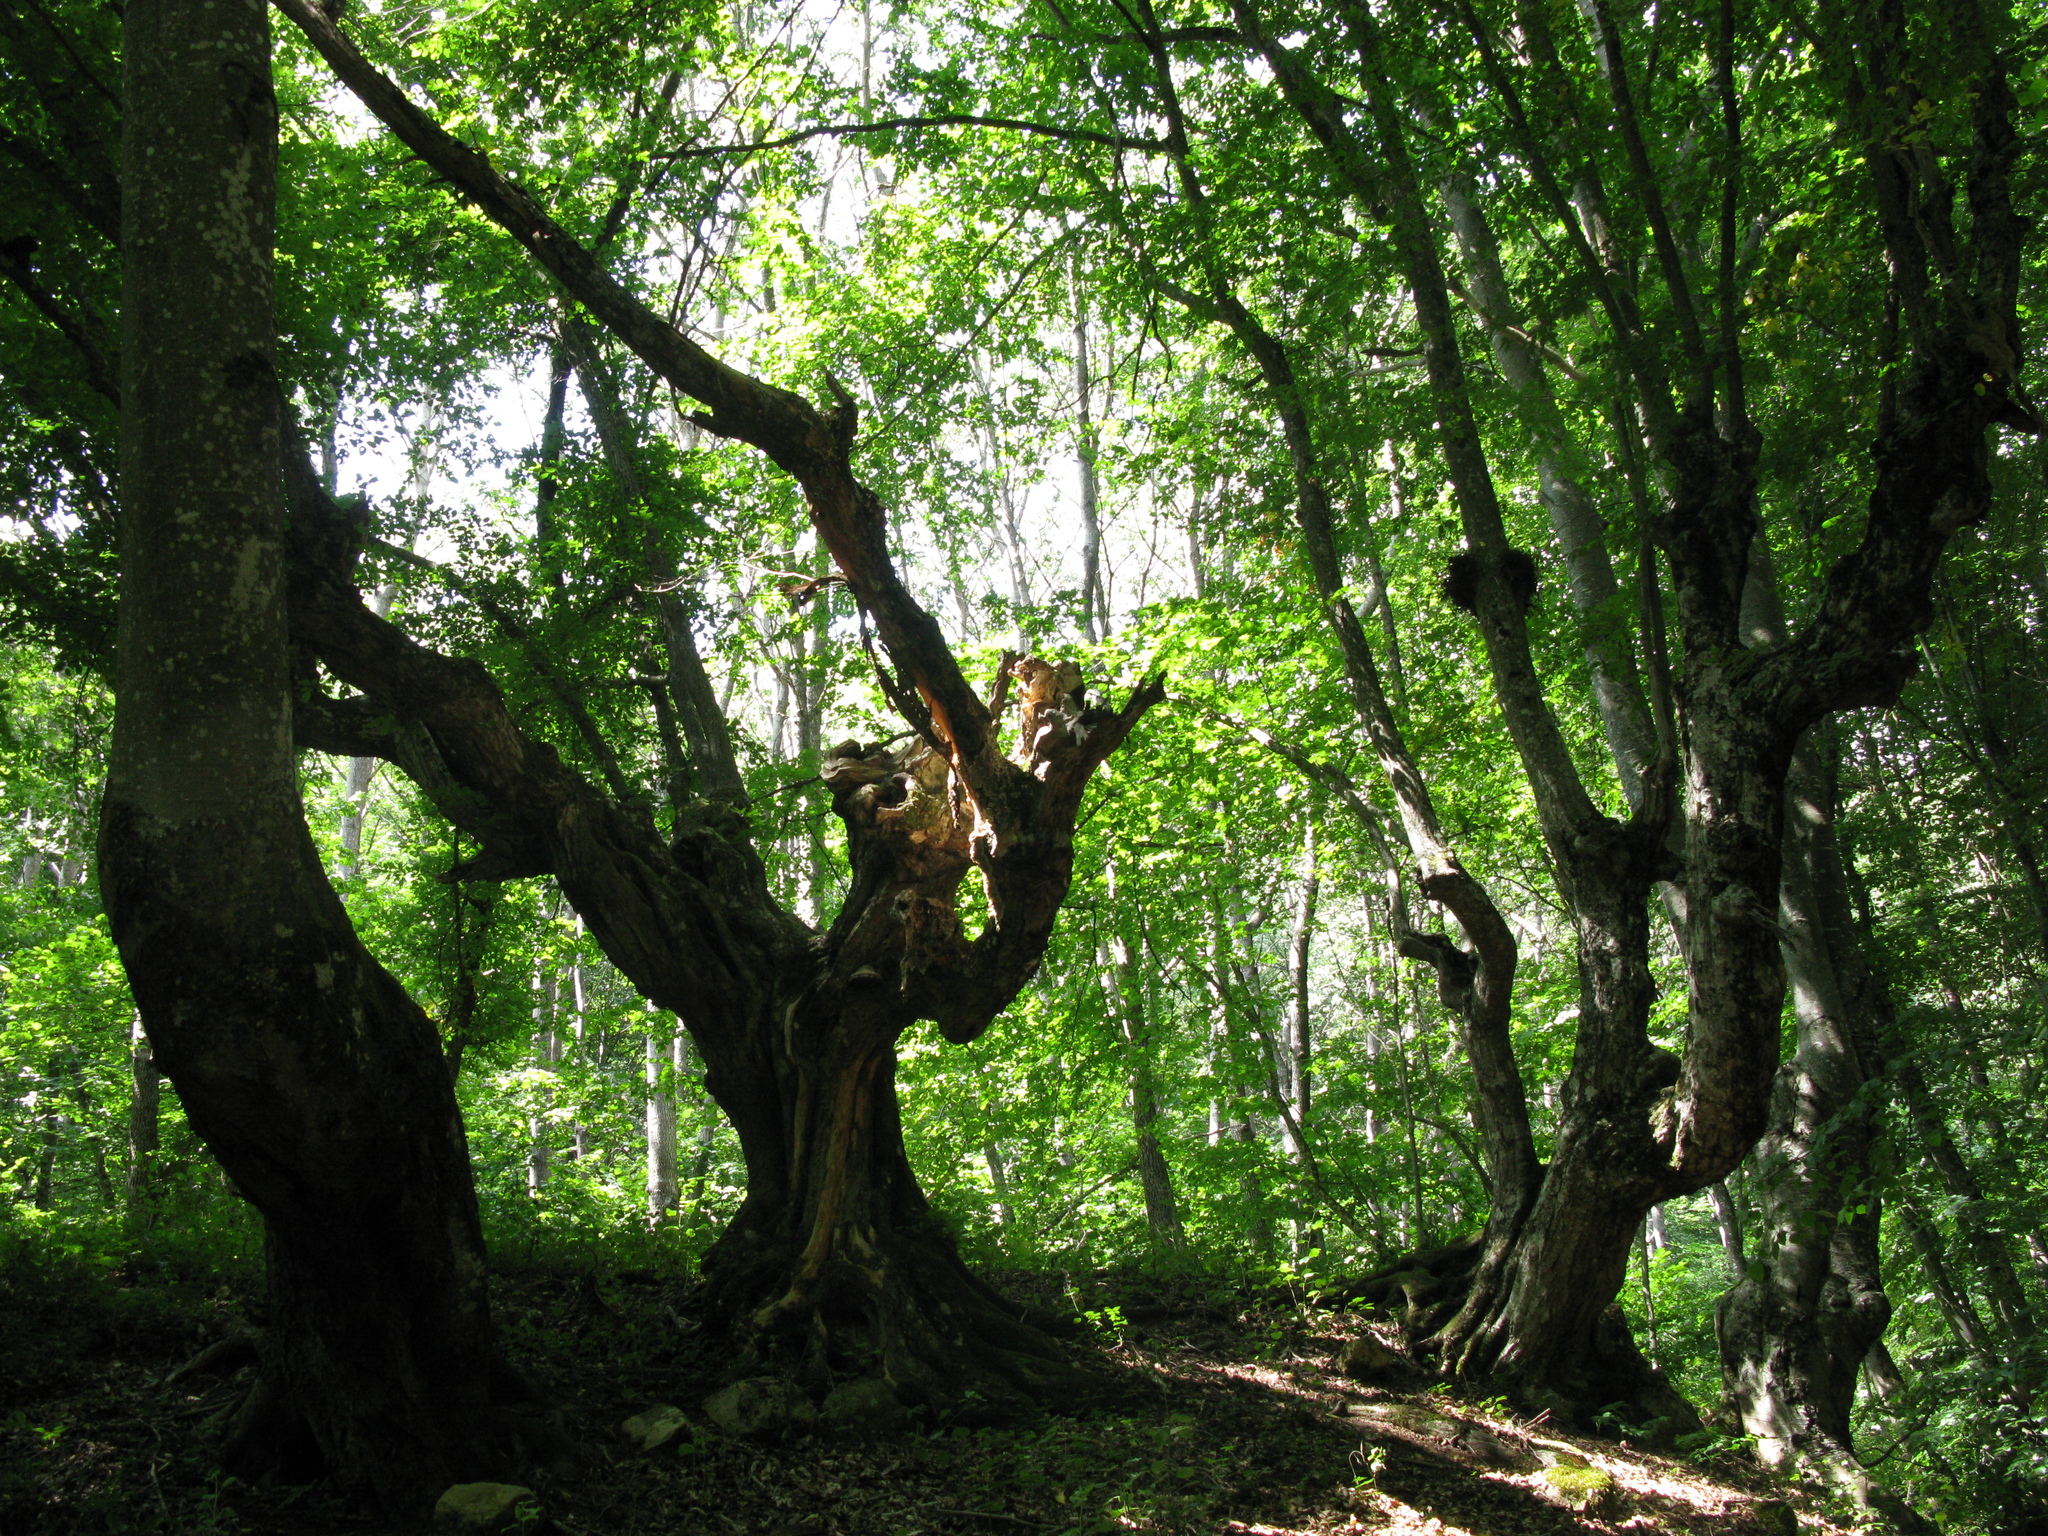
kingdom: Plantae
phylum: Tracheophyta
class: Magnoliopsida
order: Fagales
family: Fagaceae
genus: Fagus
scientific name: Fagus taurica
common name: Crimean beech
